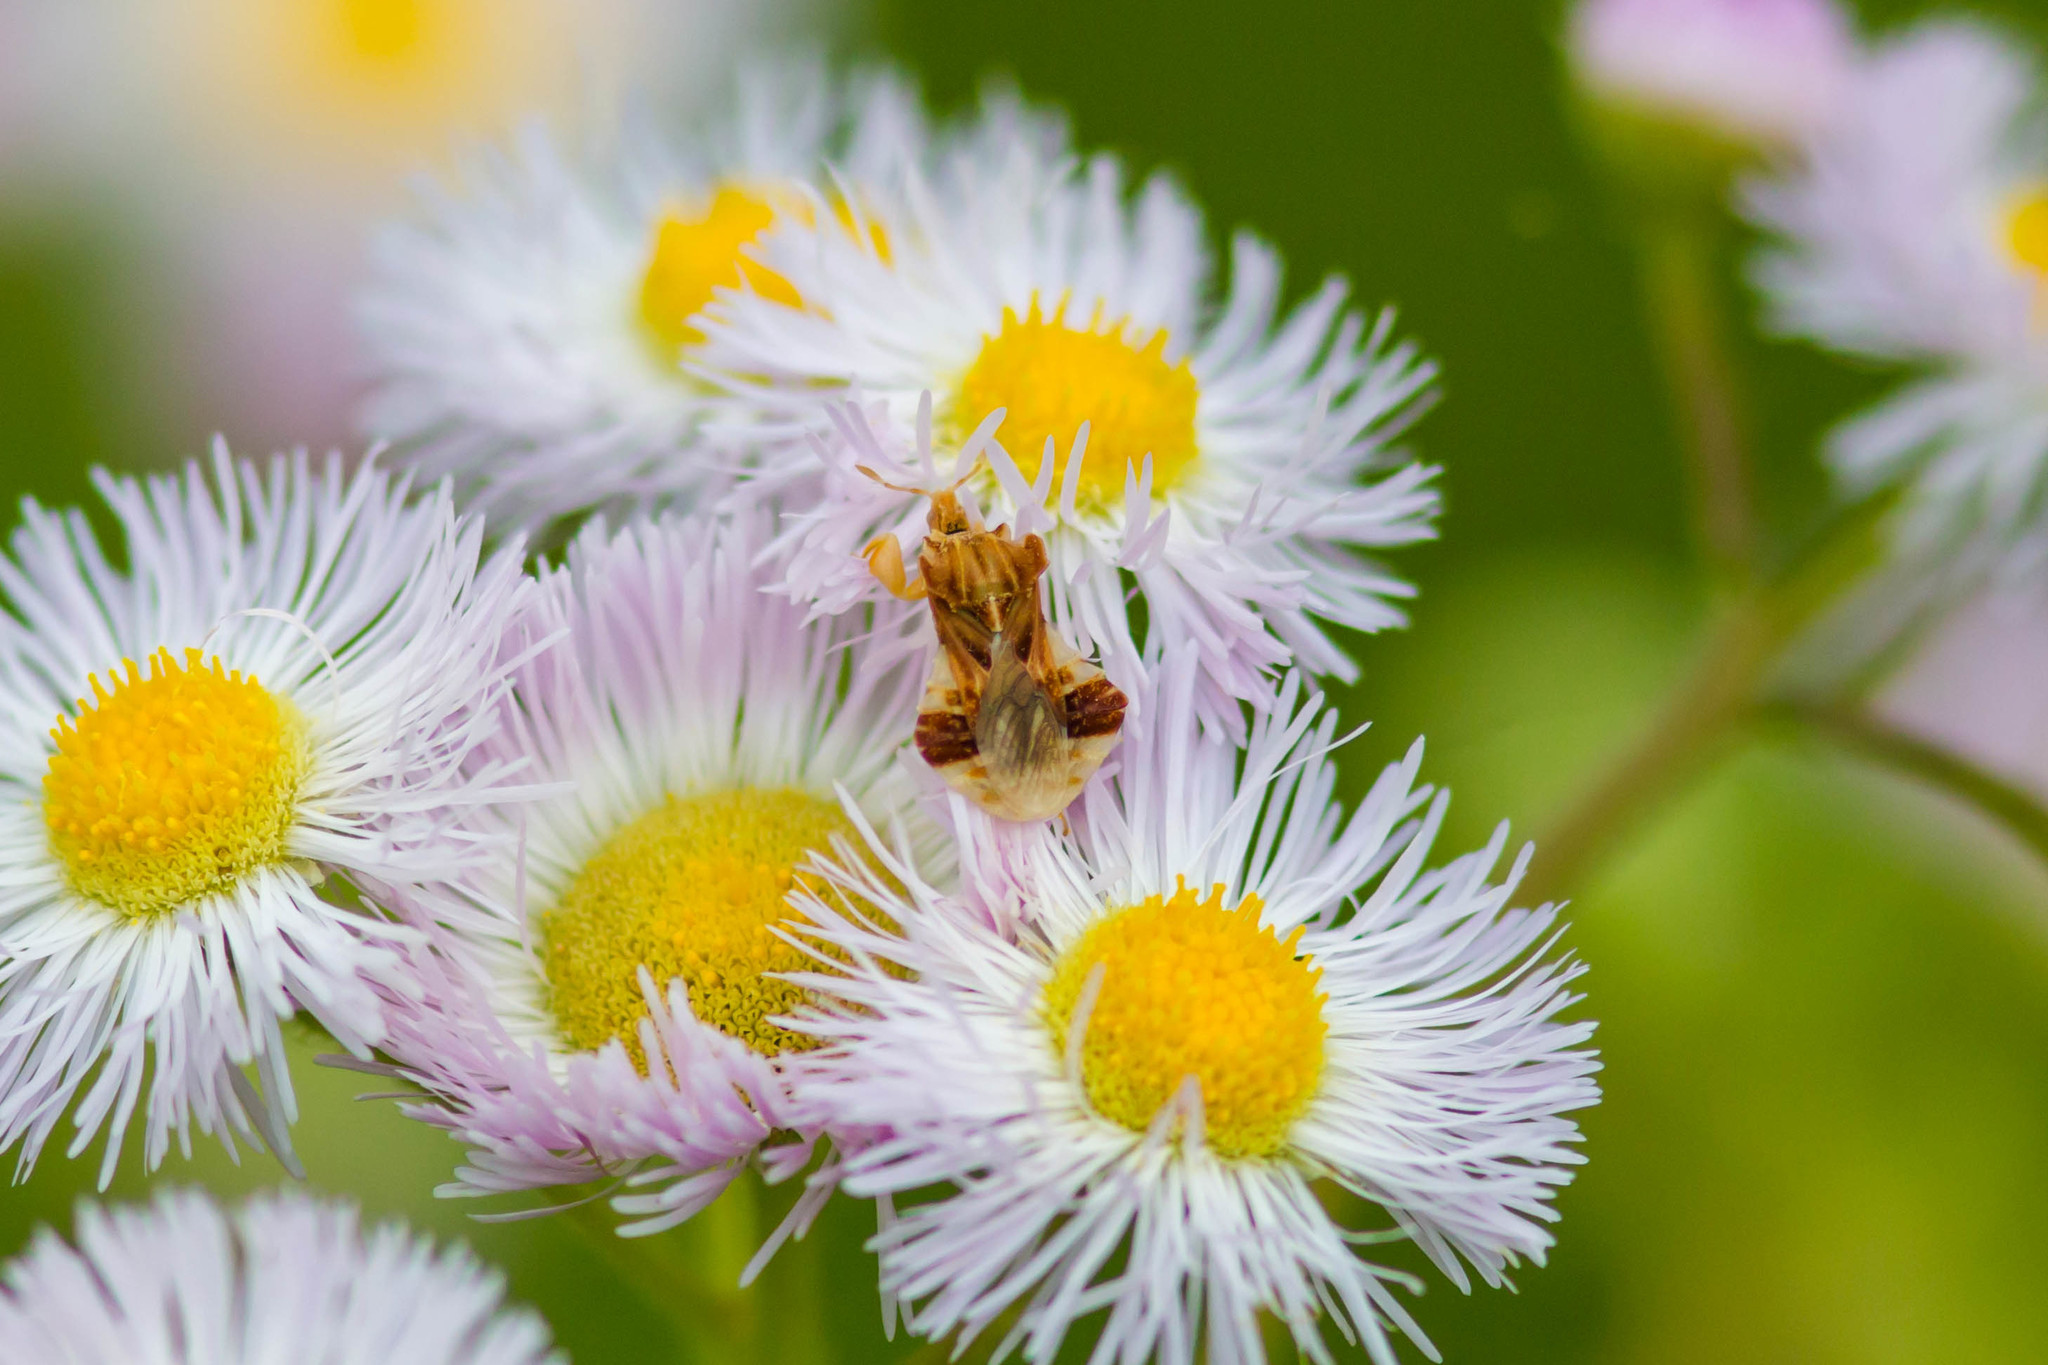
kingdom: Animalia
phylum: Arthropoda
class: Insecta
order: Hemiptera
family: Reduviidae
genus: Phymata
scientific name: Phymata fasciata
